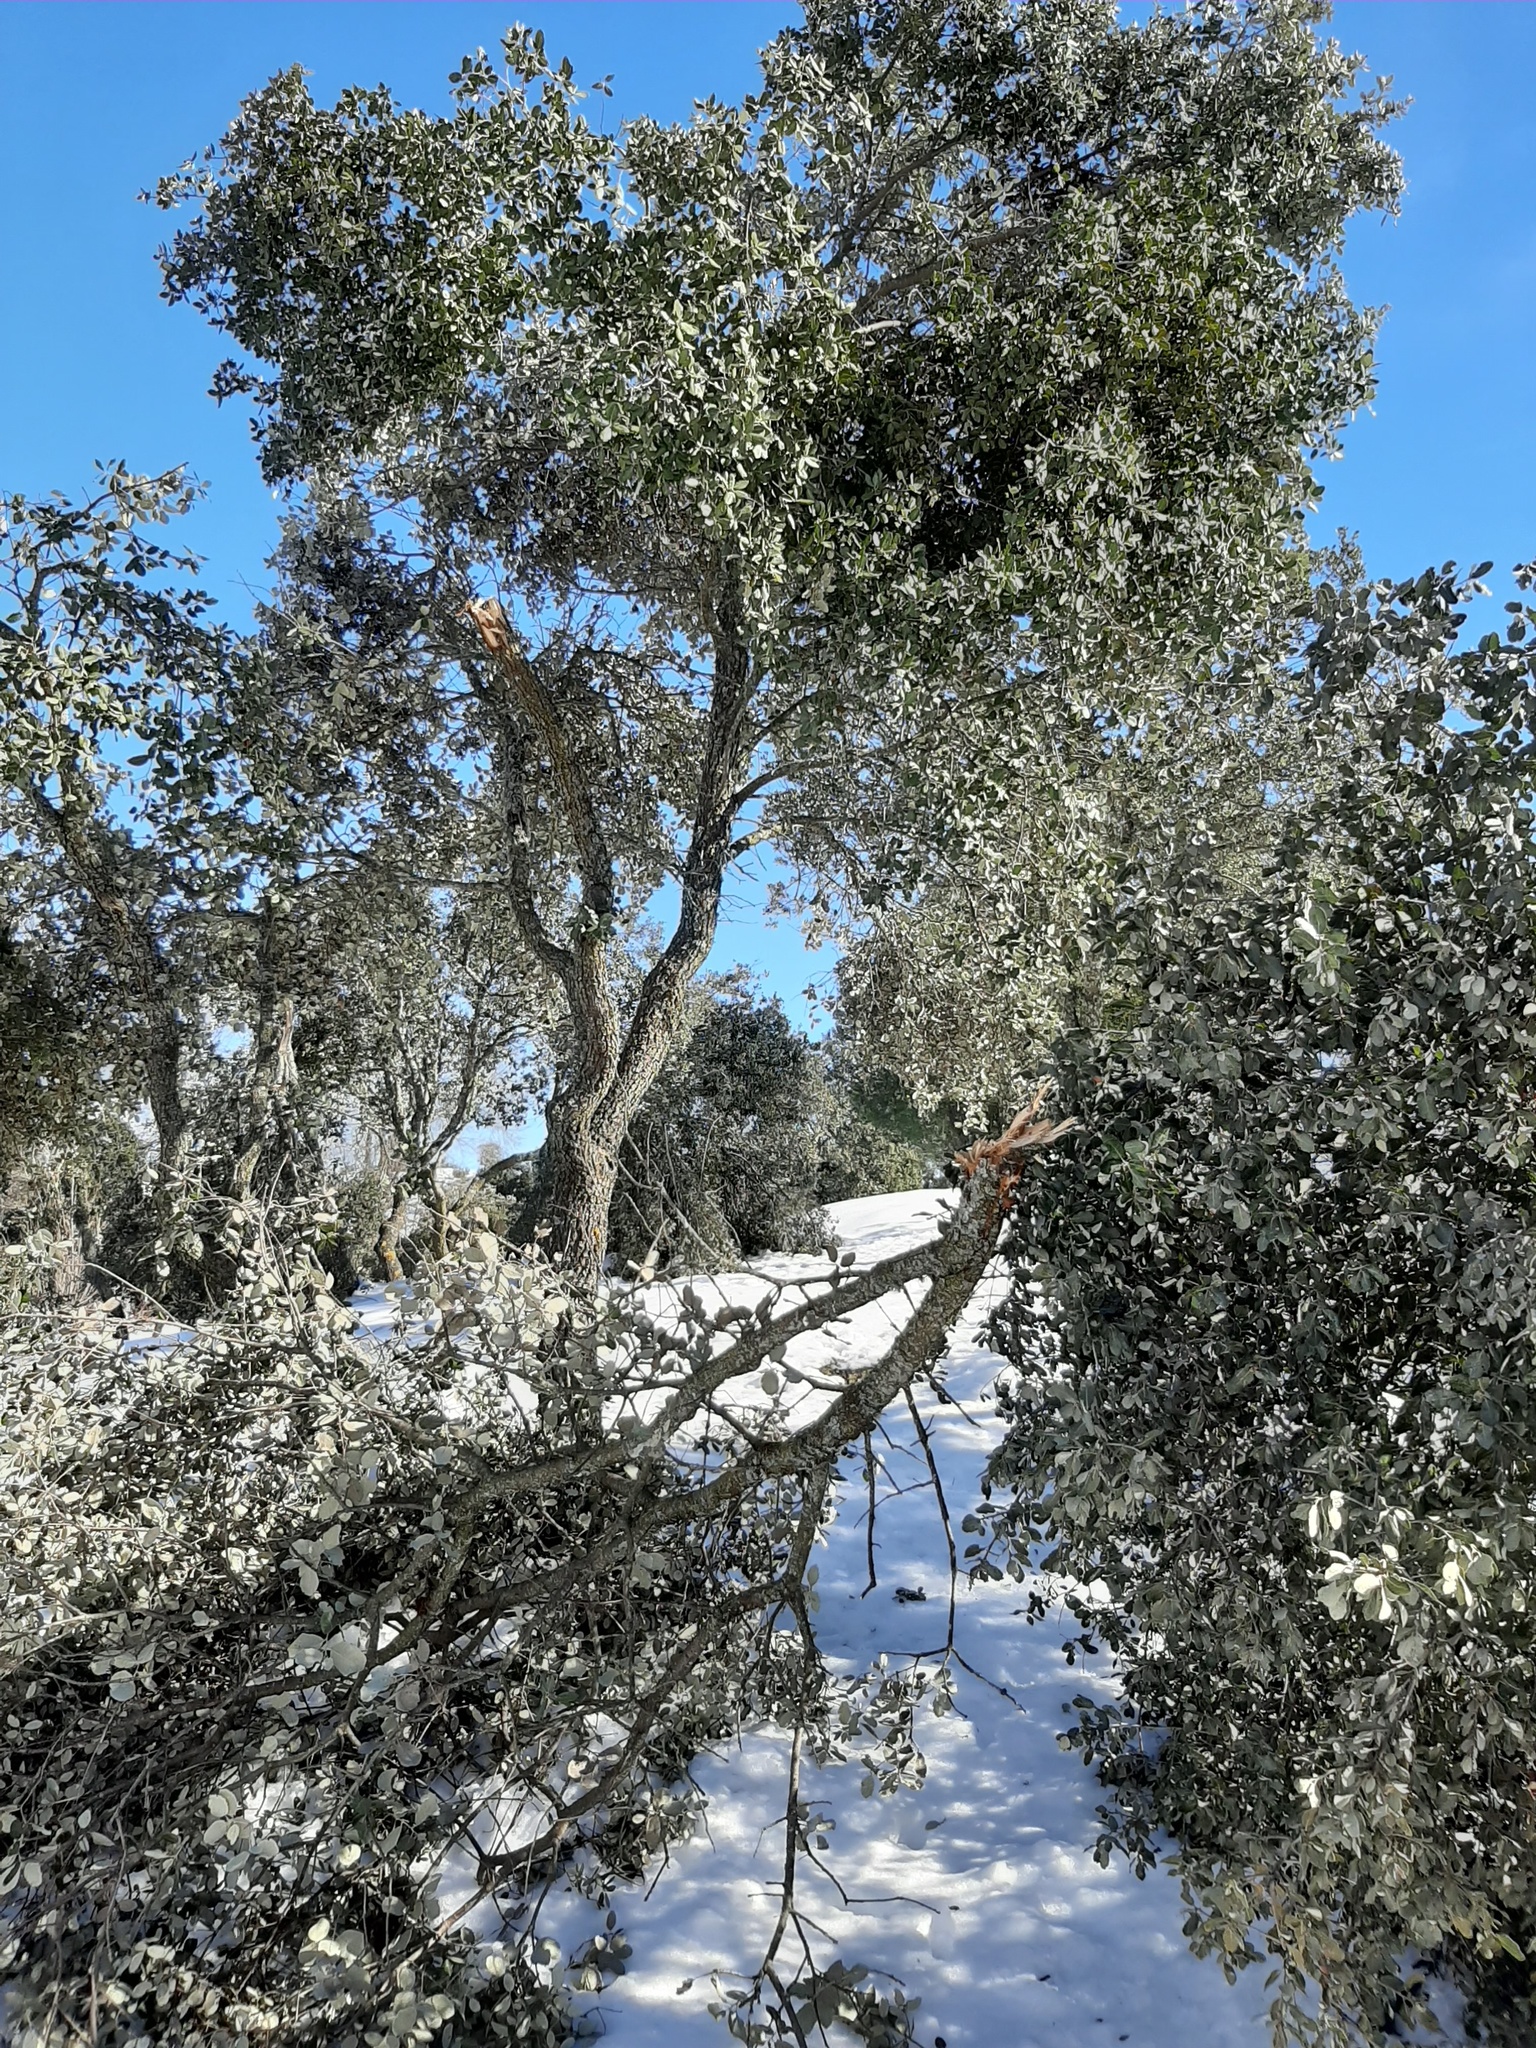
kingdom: Plantae
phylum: Tracheophyta
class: Magnoliopsida
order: Fagales
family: Fagaceae
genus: Quercus
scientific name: Quercus rotundifolia
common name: Holm oak
